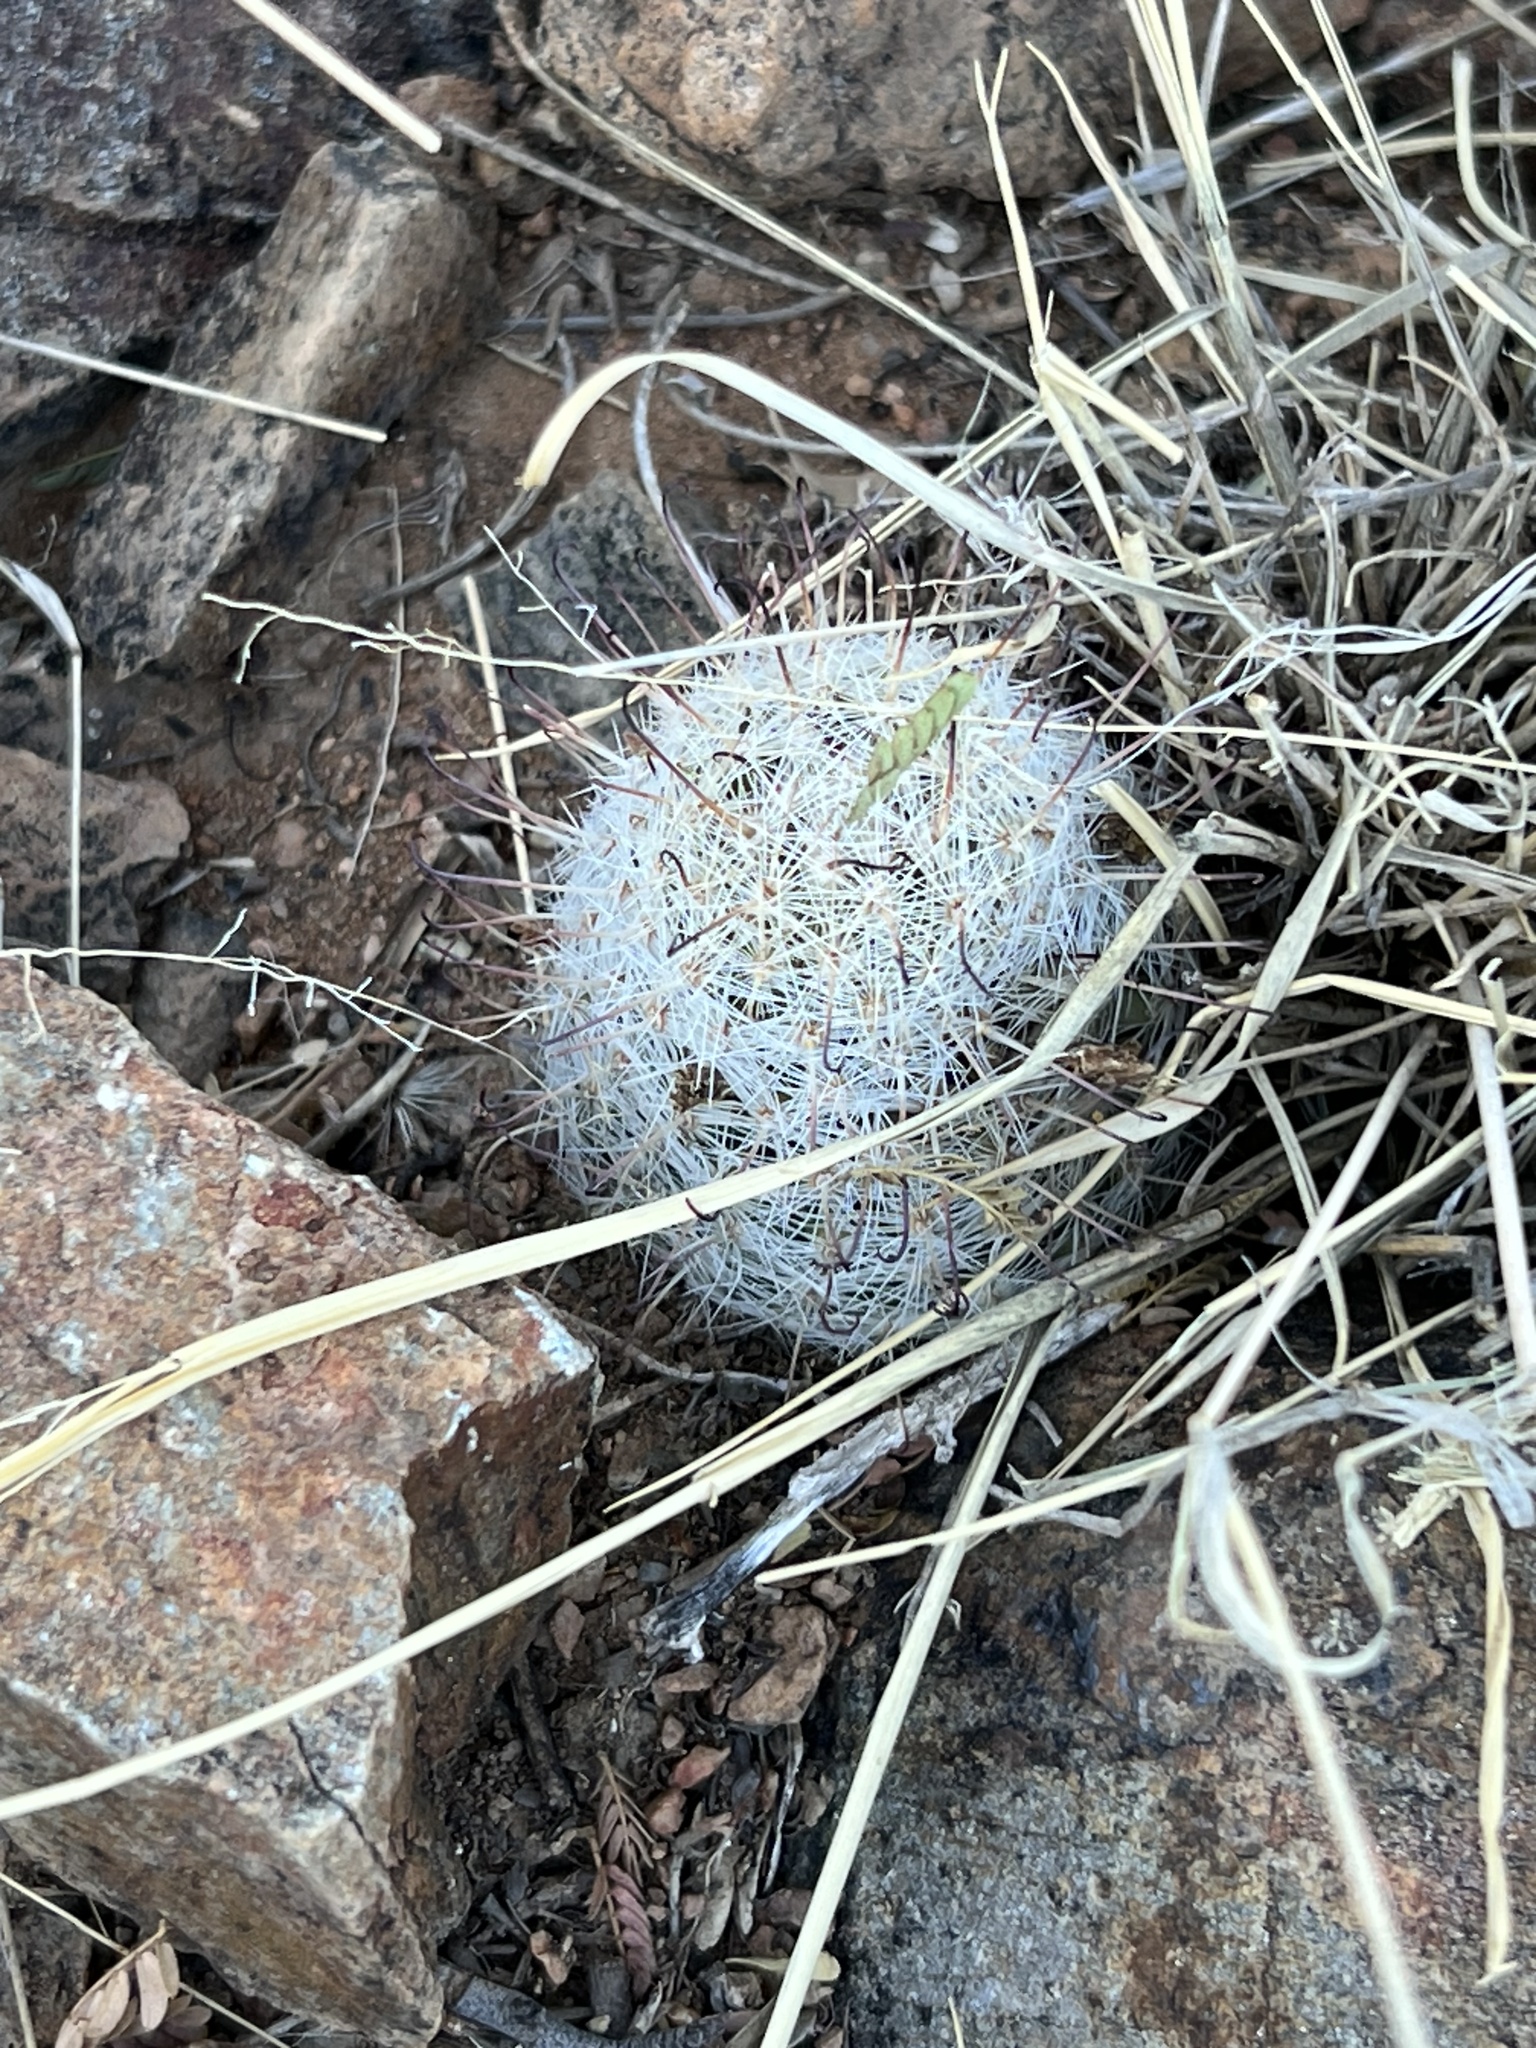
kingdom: Plantae
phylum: Tracheophyta
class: Magnoliopsida
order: Caryophyllales
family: Cactaceae
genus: Cochemiea
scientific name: Cochemiea grahamii
